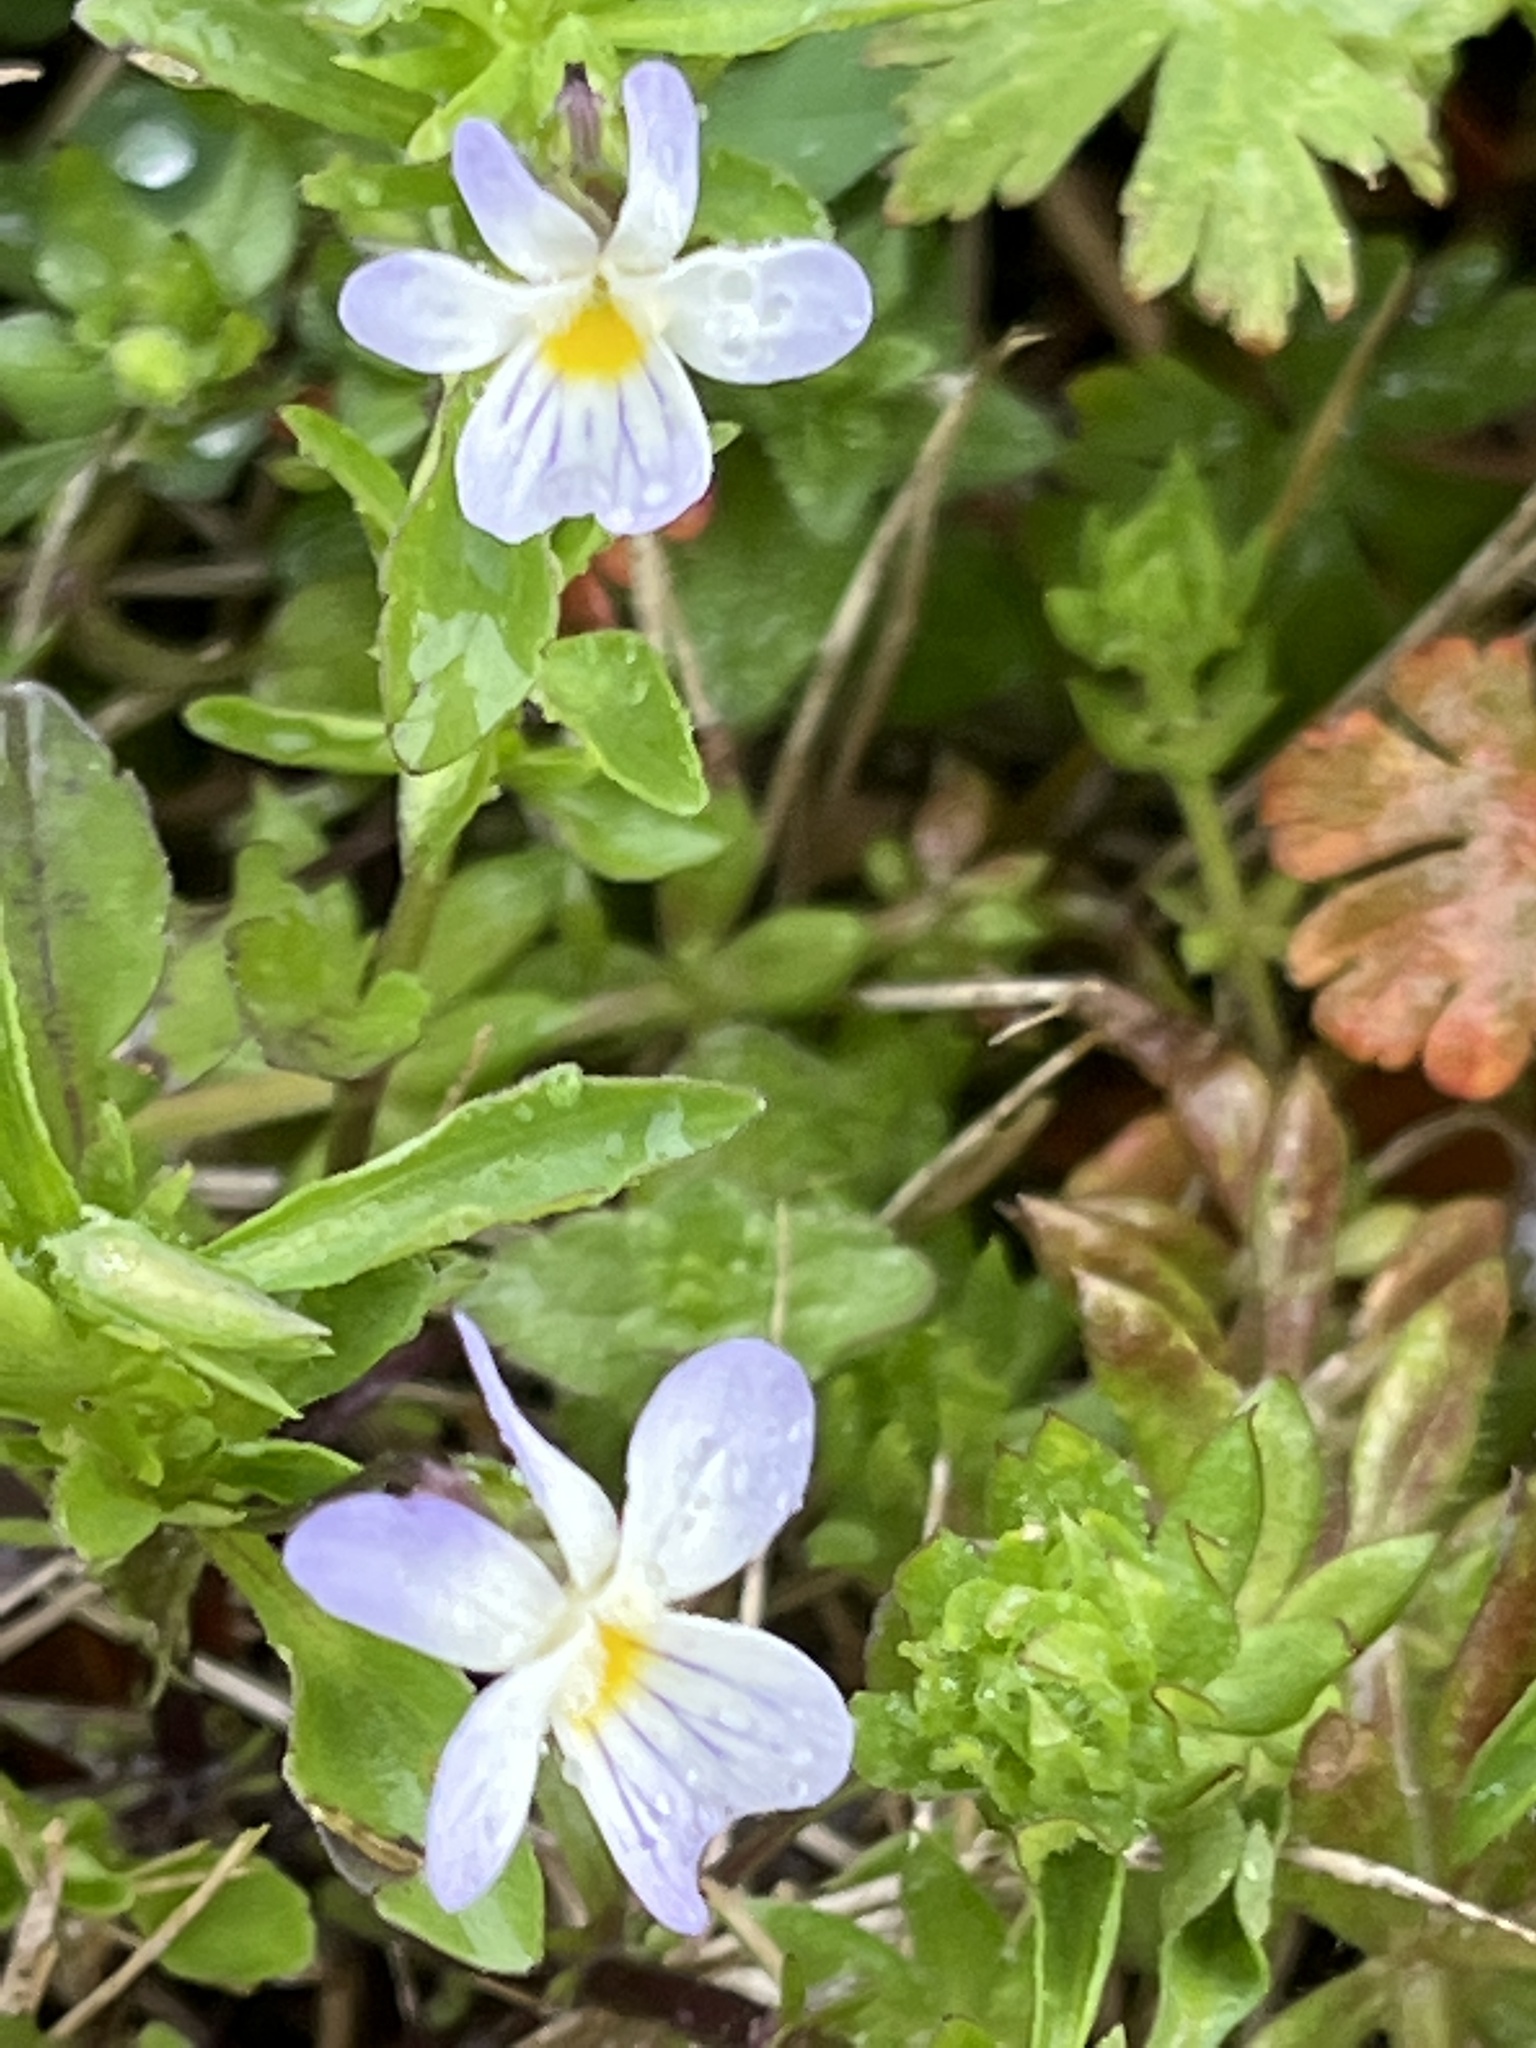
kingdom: Plantae
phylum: Tracheophyta
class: Magnoliopsida
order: Malpighiales
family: Violaceae
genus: Viola
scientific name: Viola rafinesquei
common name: American field pansy
